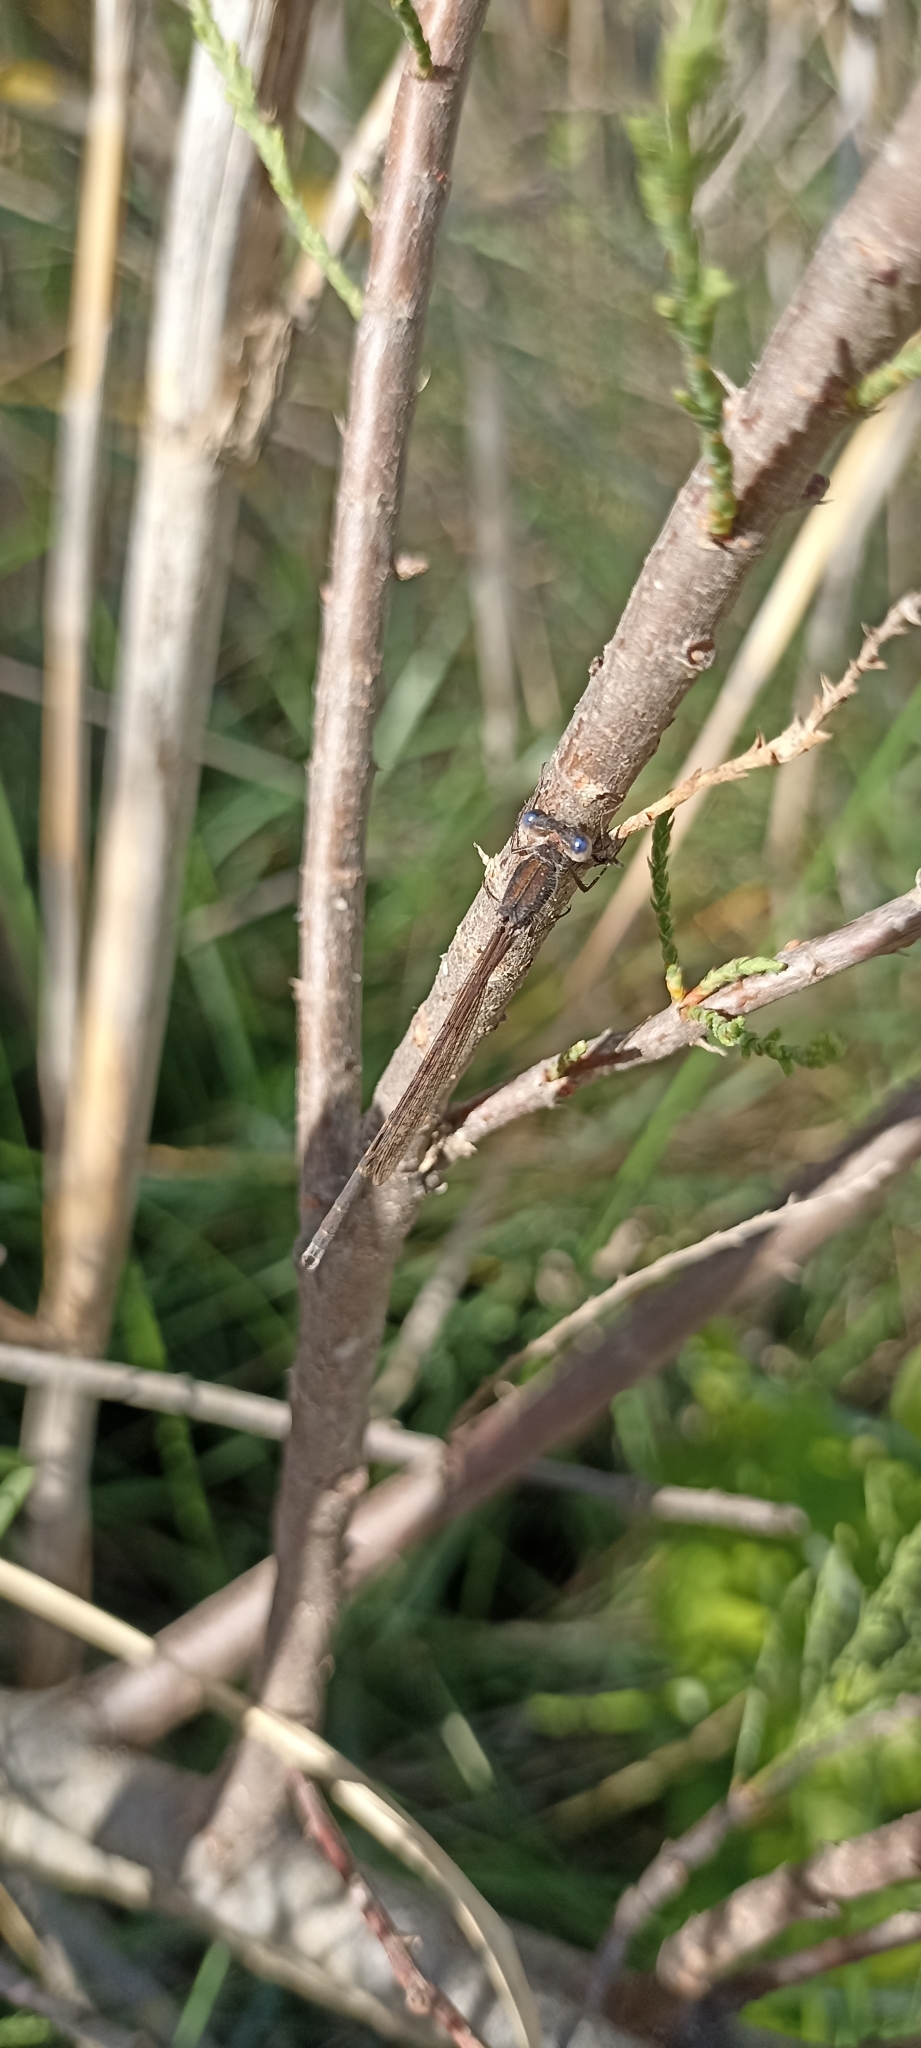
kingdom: Animalia
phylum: Arthropoda
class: Insecta
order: Odonata
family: Lestidae
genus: Sympecma
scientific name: Sympecma fusca
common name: Common winter damsel
